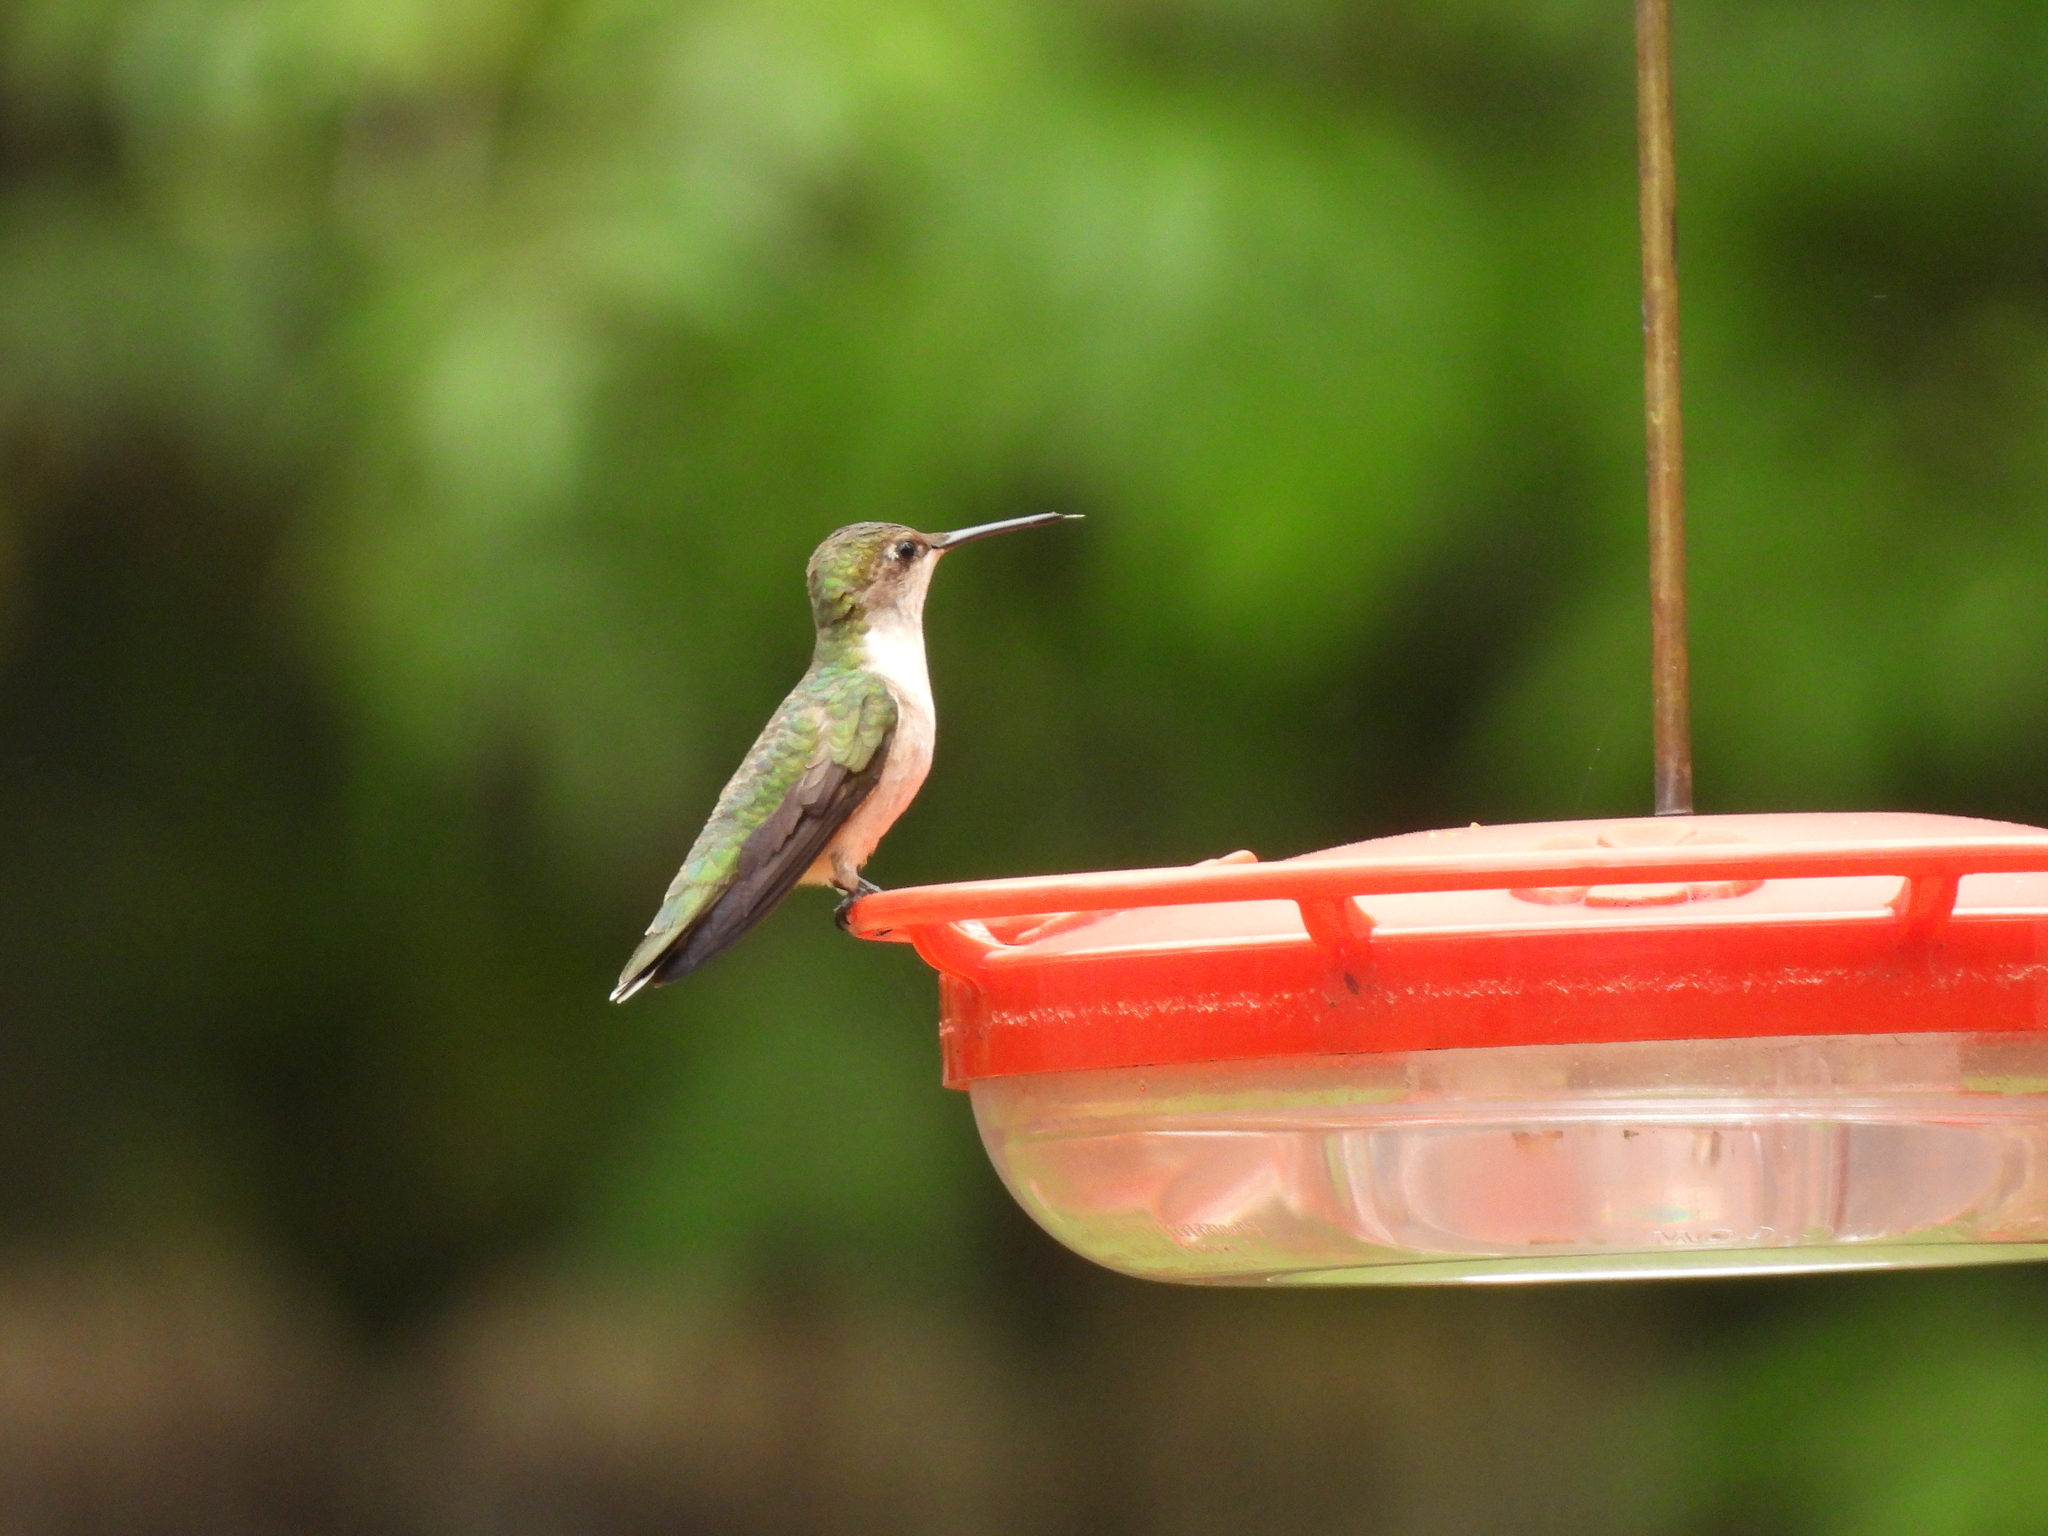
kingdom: Animalia
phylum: Chordata
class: Aves
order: Apodiformes
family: Trochilidae
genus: Archilochus
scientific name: Archilochus colubris
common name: Ruby-throated hummingbird
